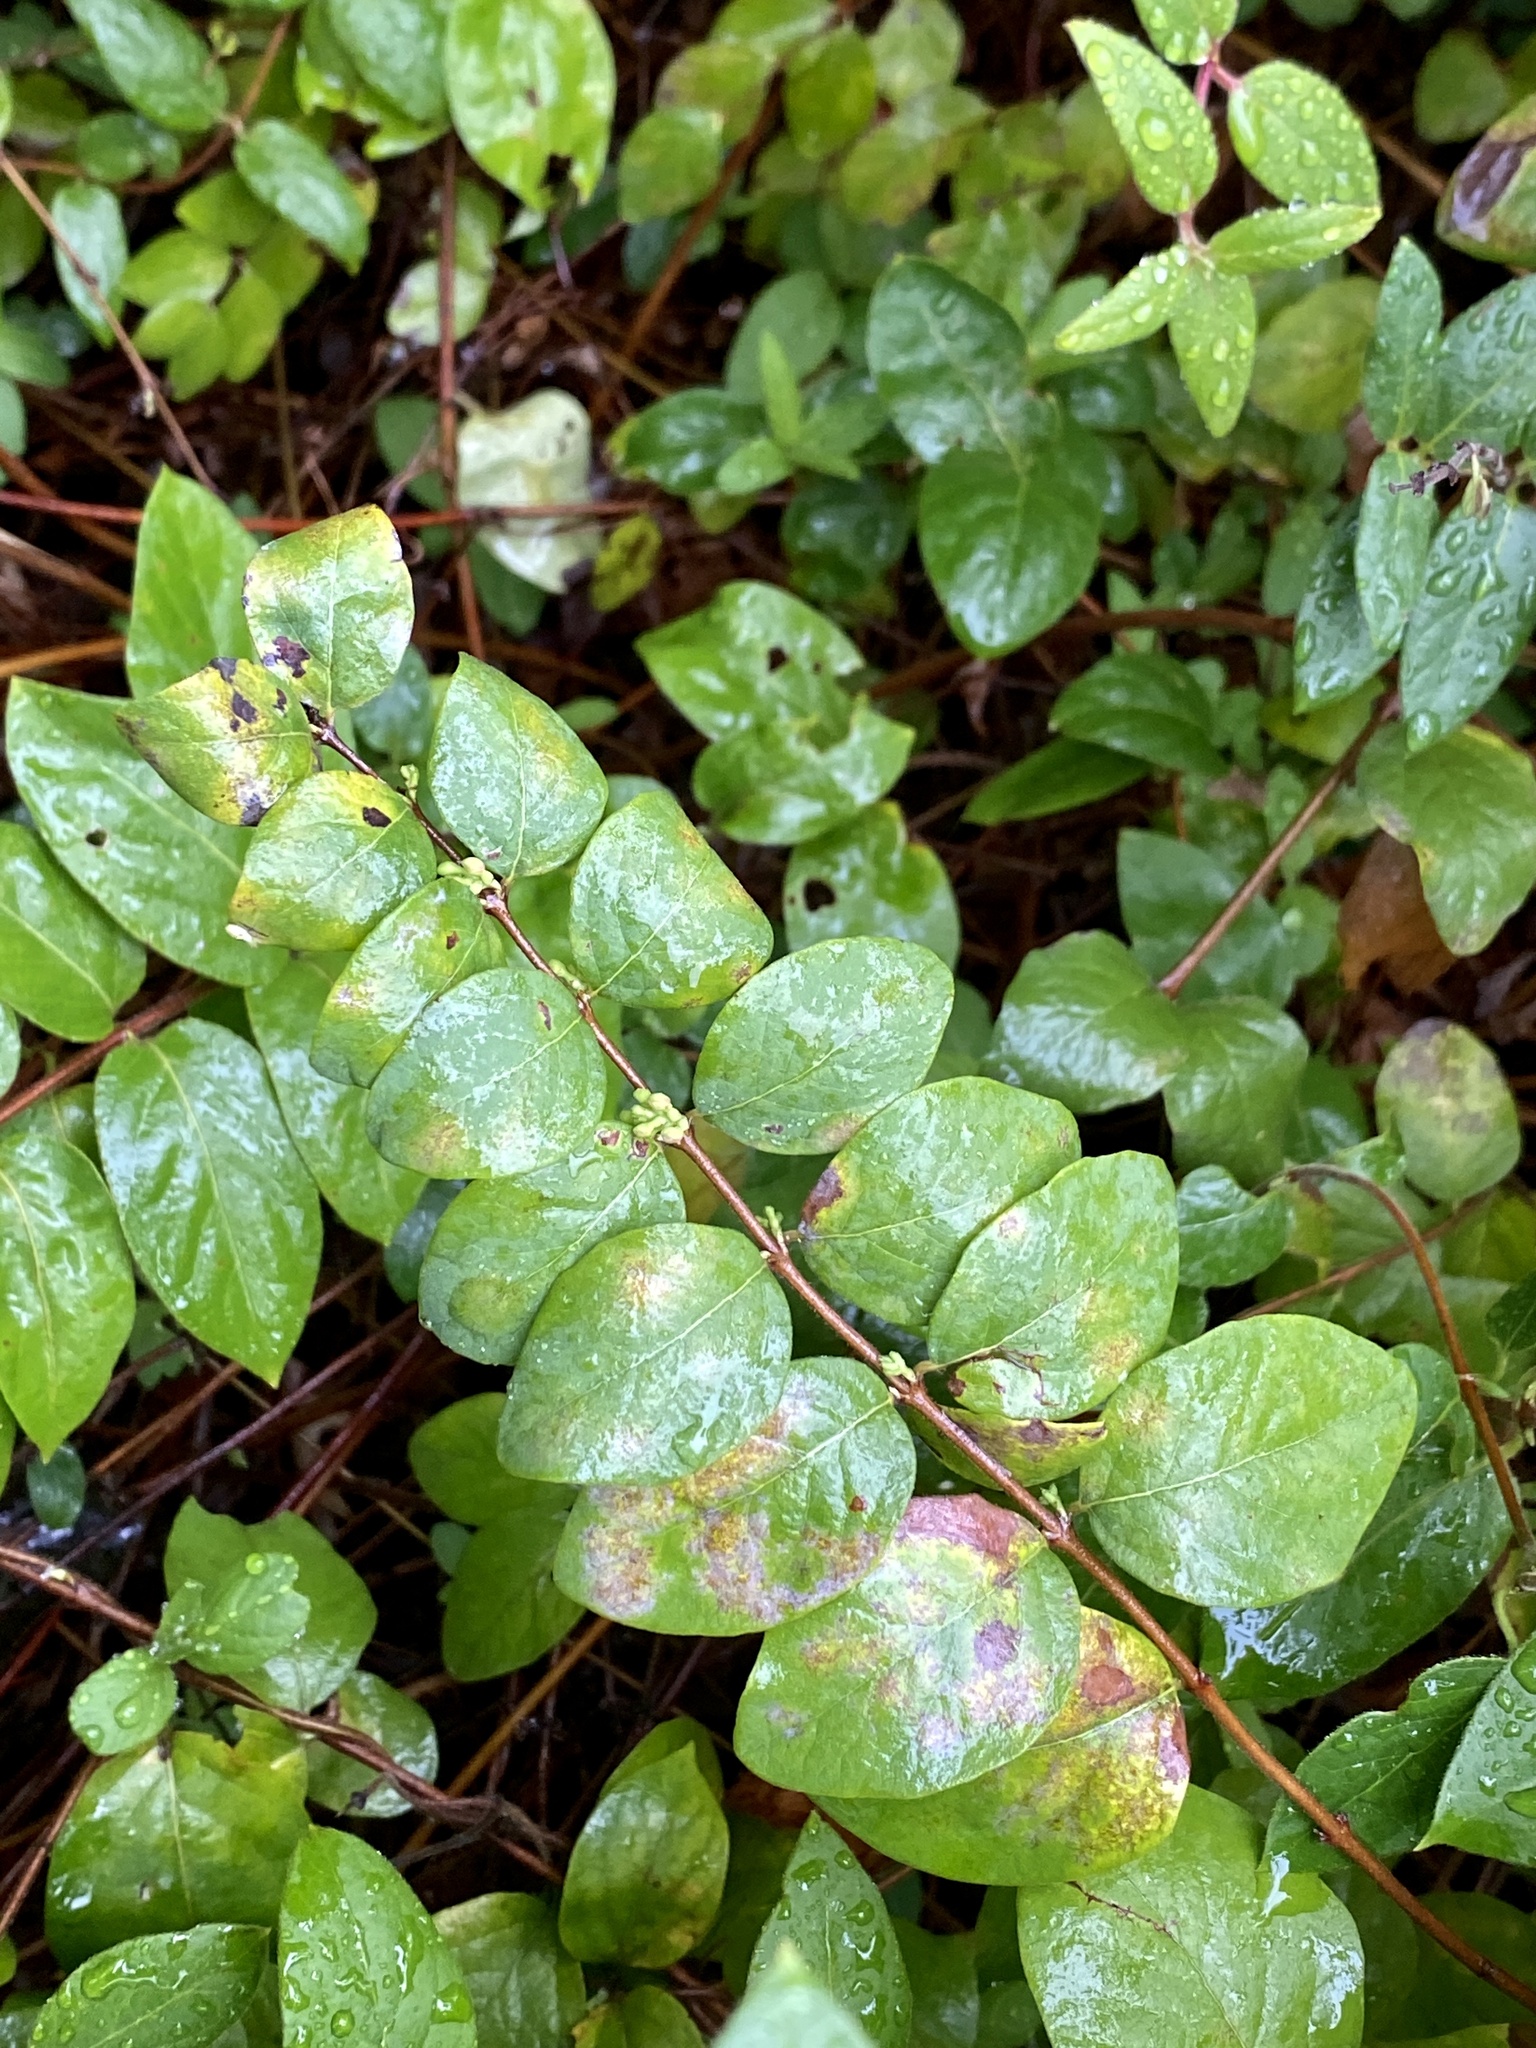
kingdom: Plantae
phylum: Tracheophyta
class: Magnoliopsida
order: Dipsacales
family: Caprifoliaceae
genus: Symphoricarpos
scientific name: Symphoricarpos orbiculatus
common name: Coralberry
